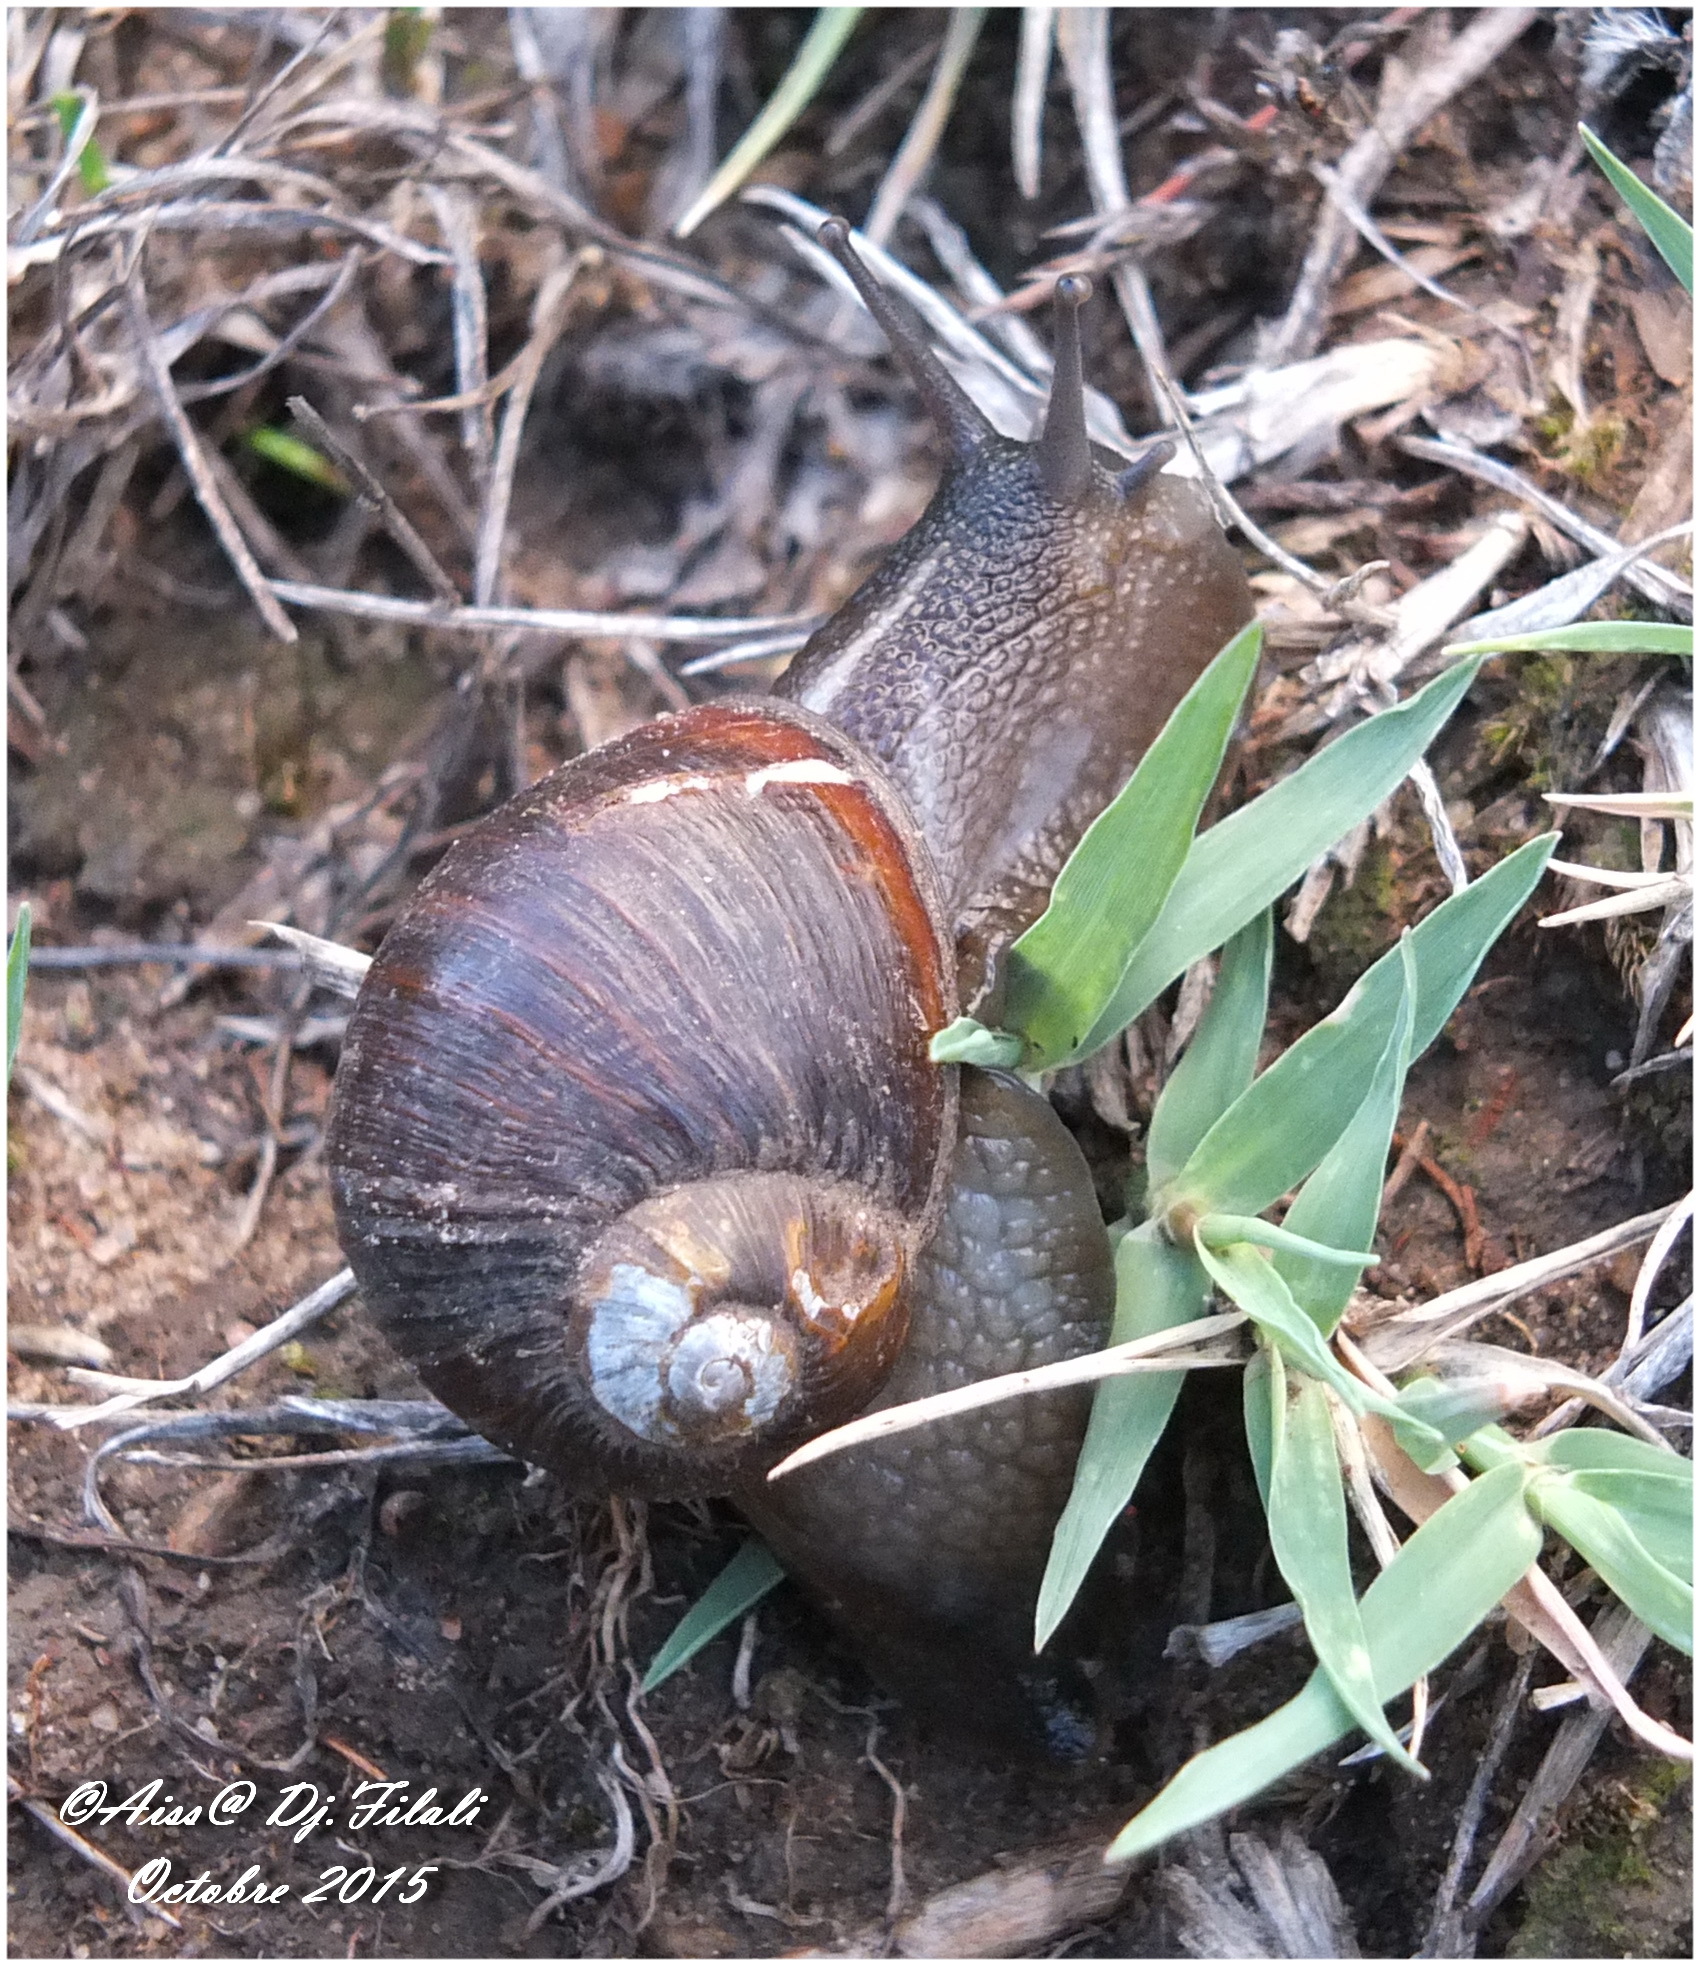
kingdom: Animalia
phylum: Mollusca
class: Gastropoda
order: Stylommatophora
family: Helicidae
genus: Cantareus
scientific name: Cantareus apertus
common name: Green gardensnail
